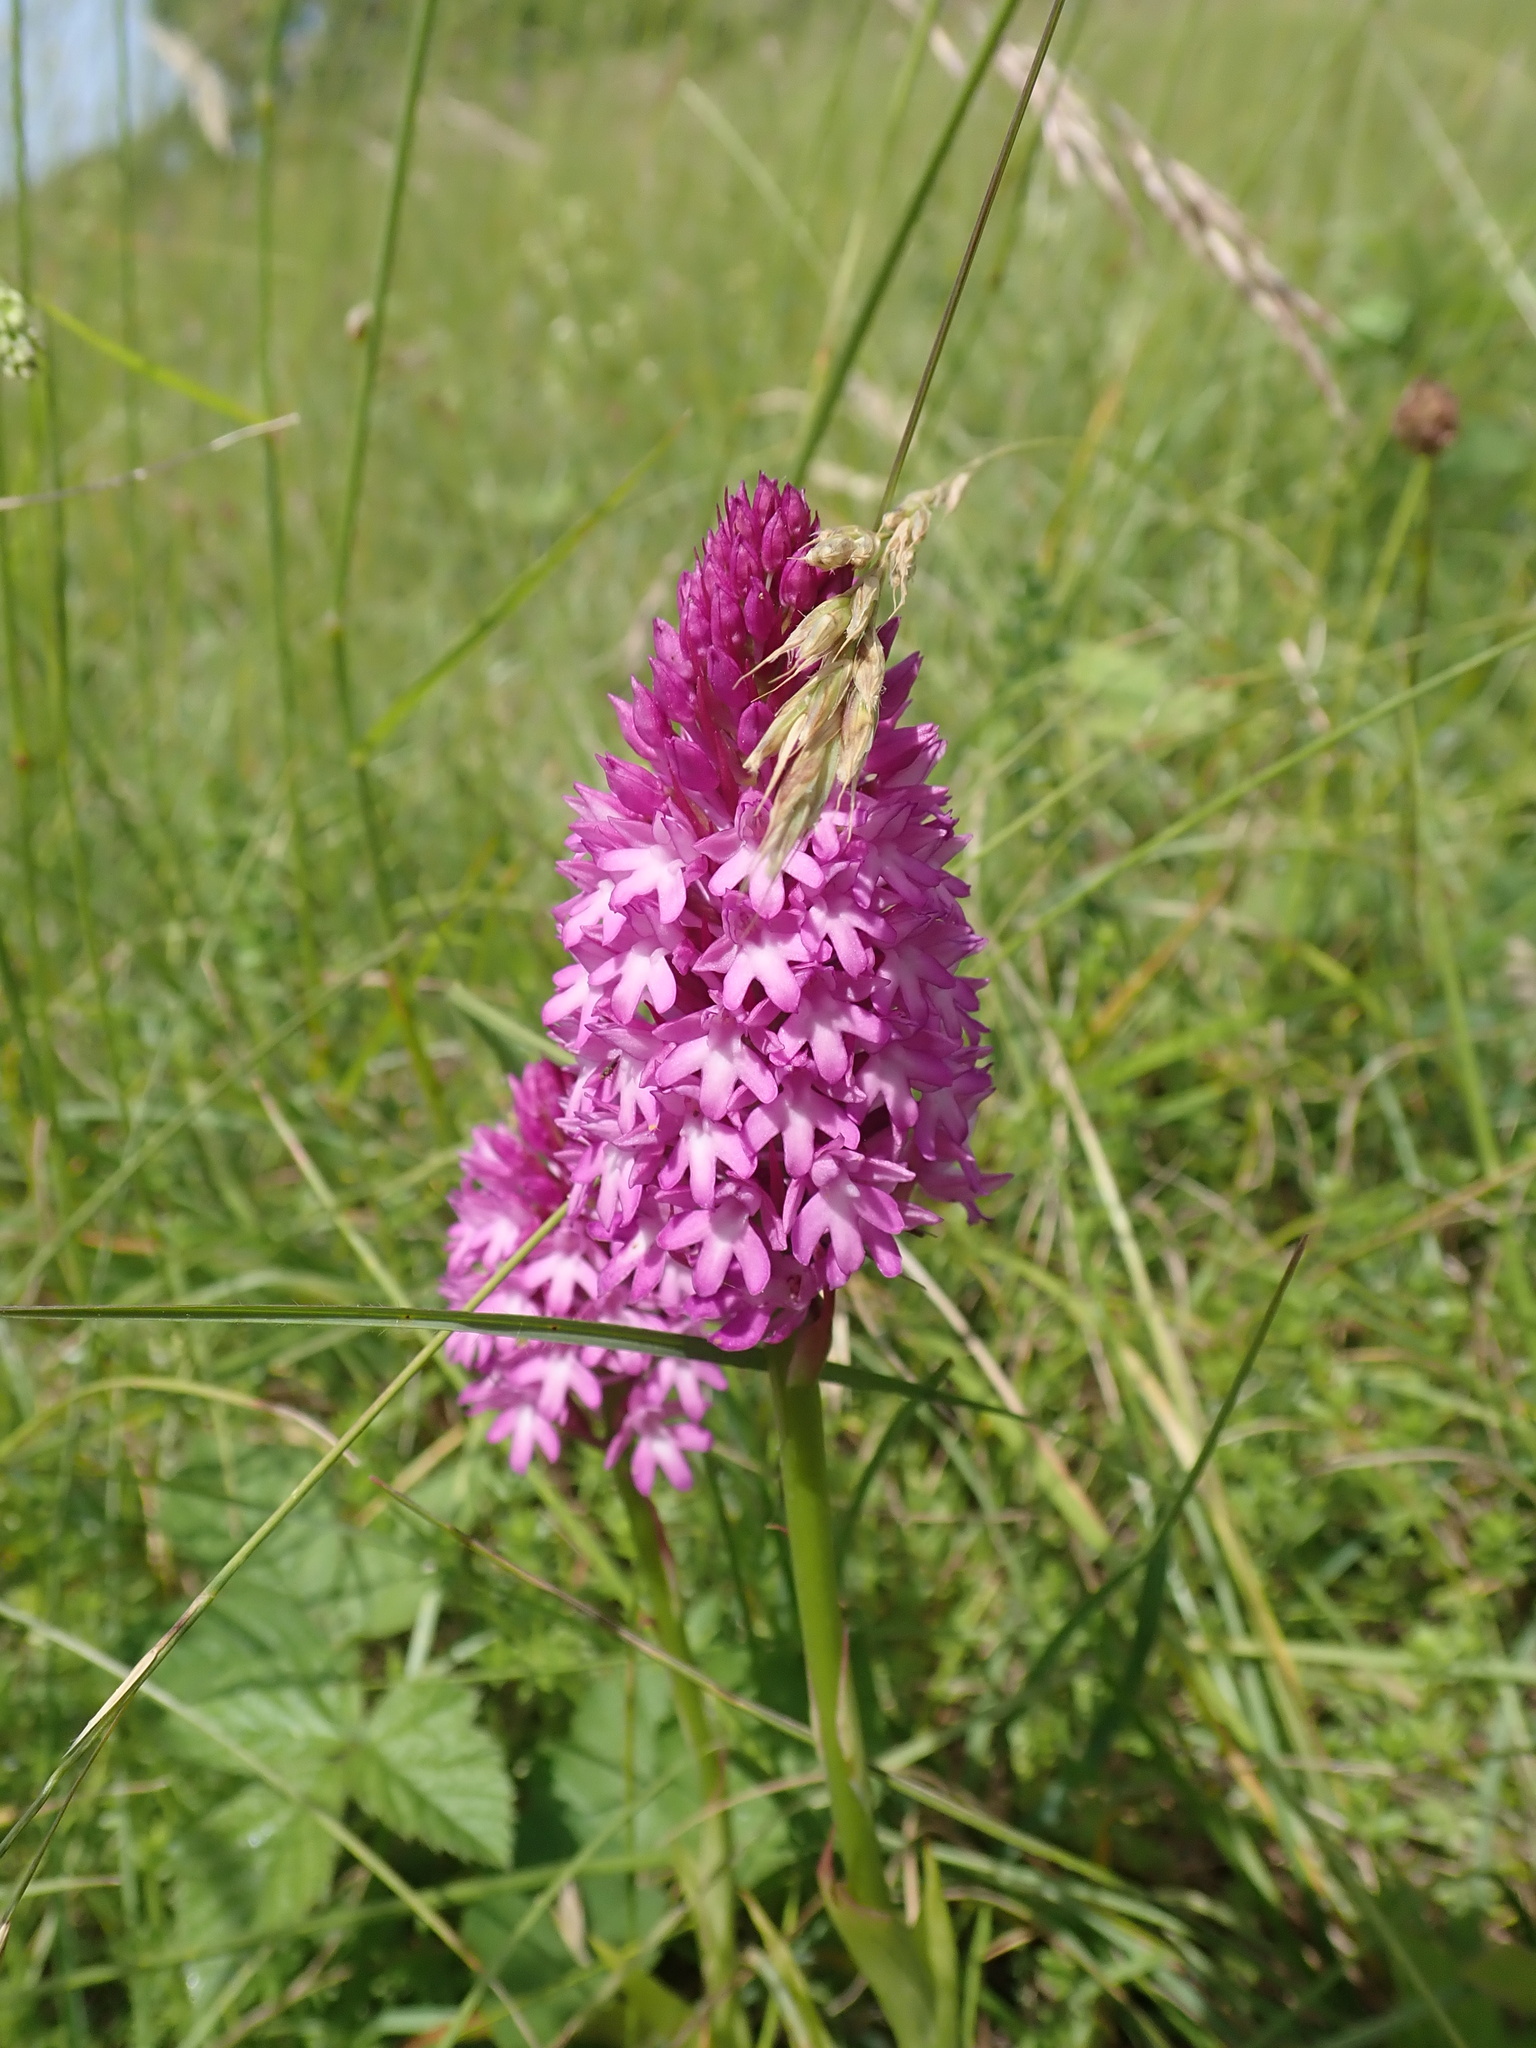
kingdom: Plantae
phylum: Tracheophyta
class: Liliopsida
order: Asparagales
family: Orchidaceae
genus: Anacamptis
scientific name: Anacamptis pyramidalis
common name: Pyramidal orchid
